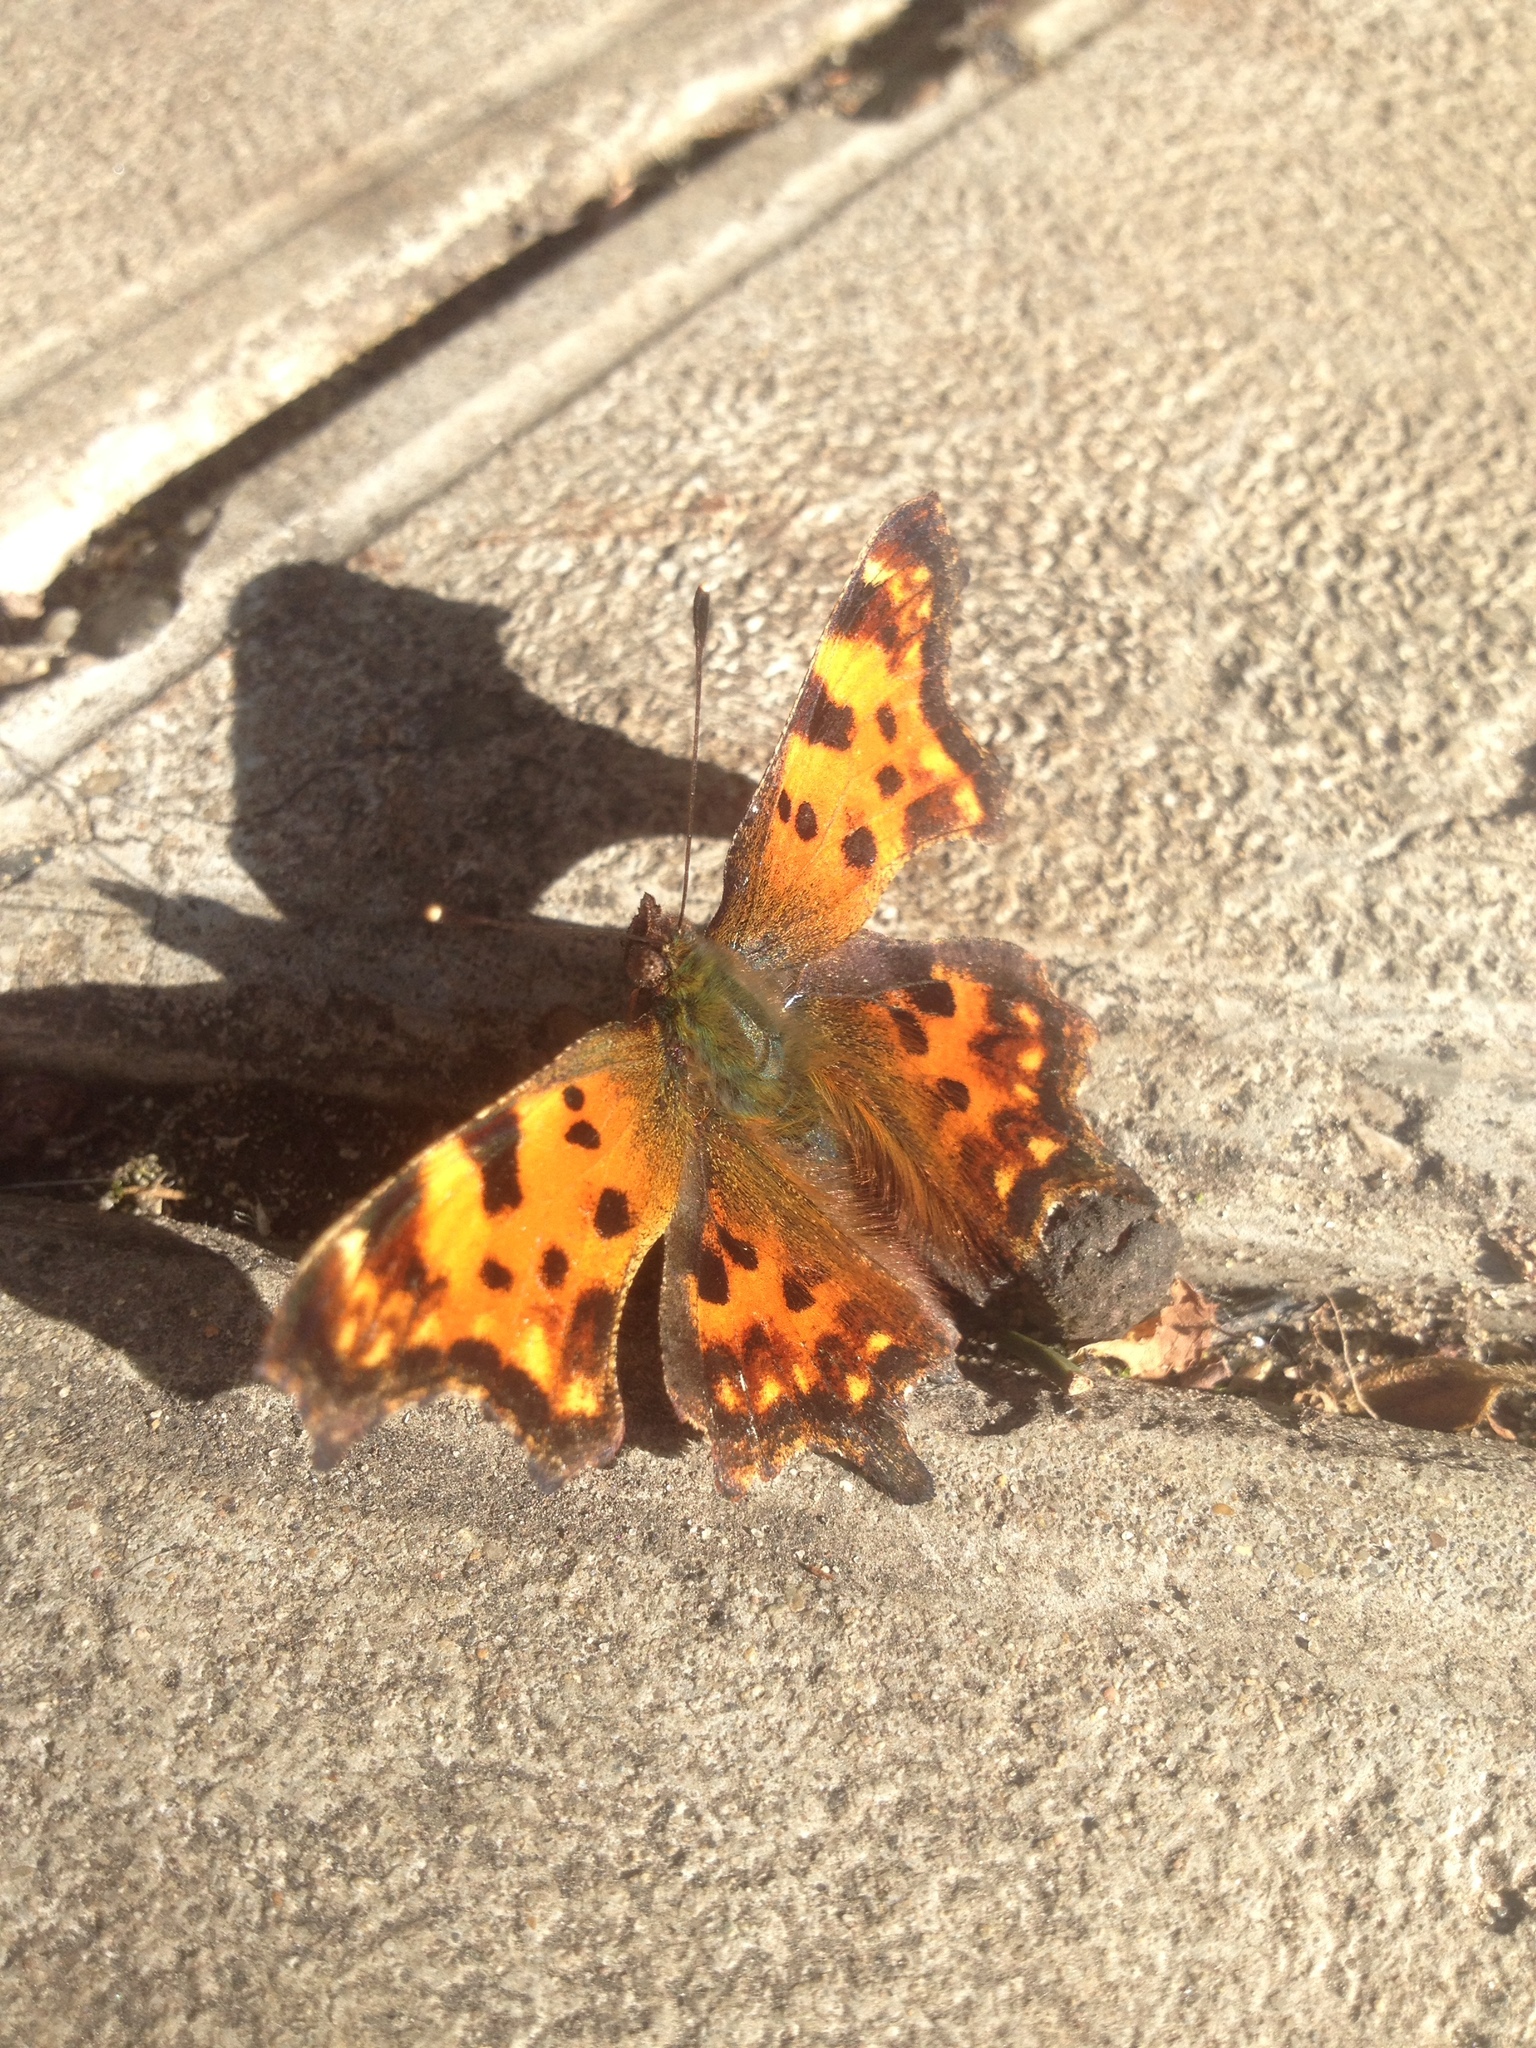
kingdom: Animalia
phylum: Arthropoda
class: Insecta
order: Lepidoptera
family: Nymphalidae
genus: Polygonia
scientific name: Polygonia c-album
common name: Comma
